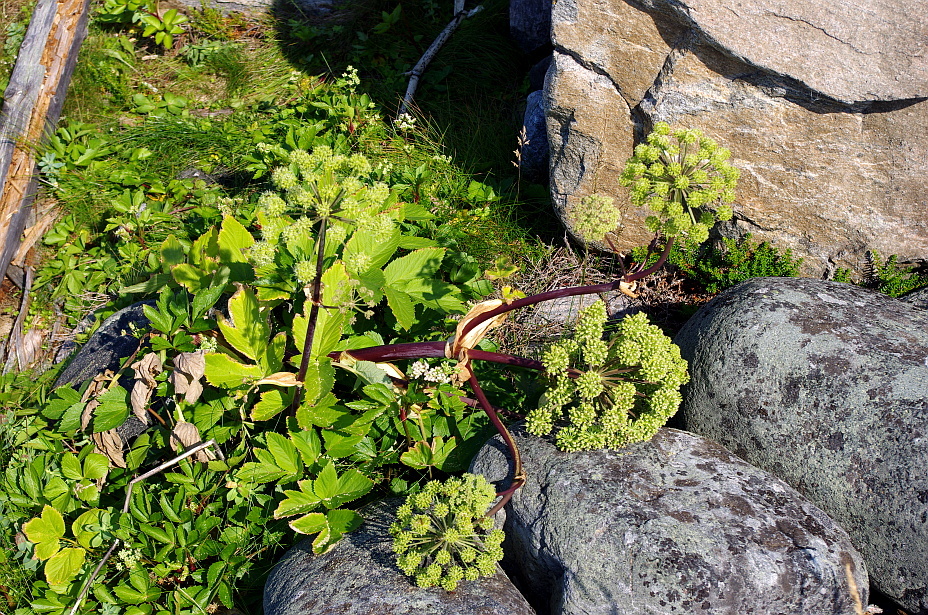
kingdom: Plantae
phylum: Tracheophyta
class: Magnoliopsida
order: Apiales
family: Apiaceae
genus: Angelica
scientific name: Angelica archangelica
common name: Garden angelica
